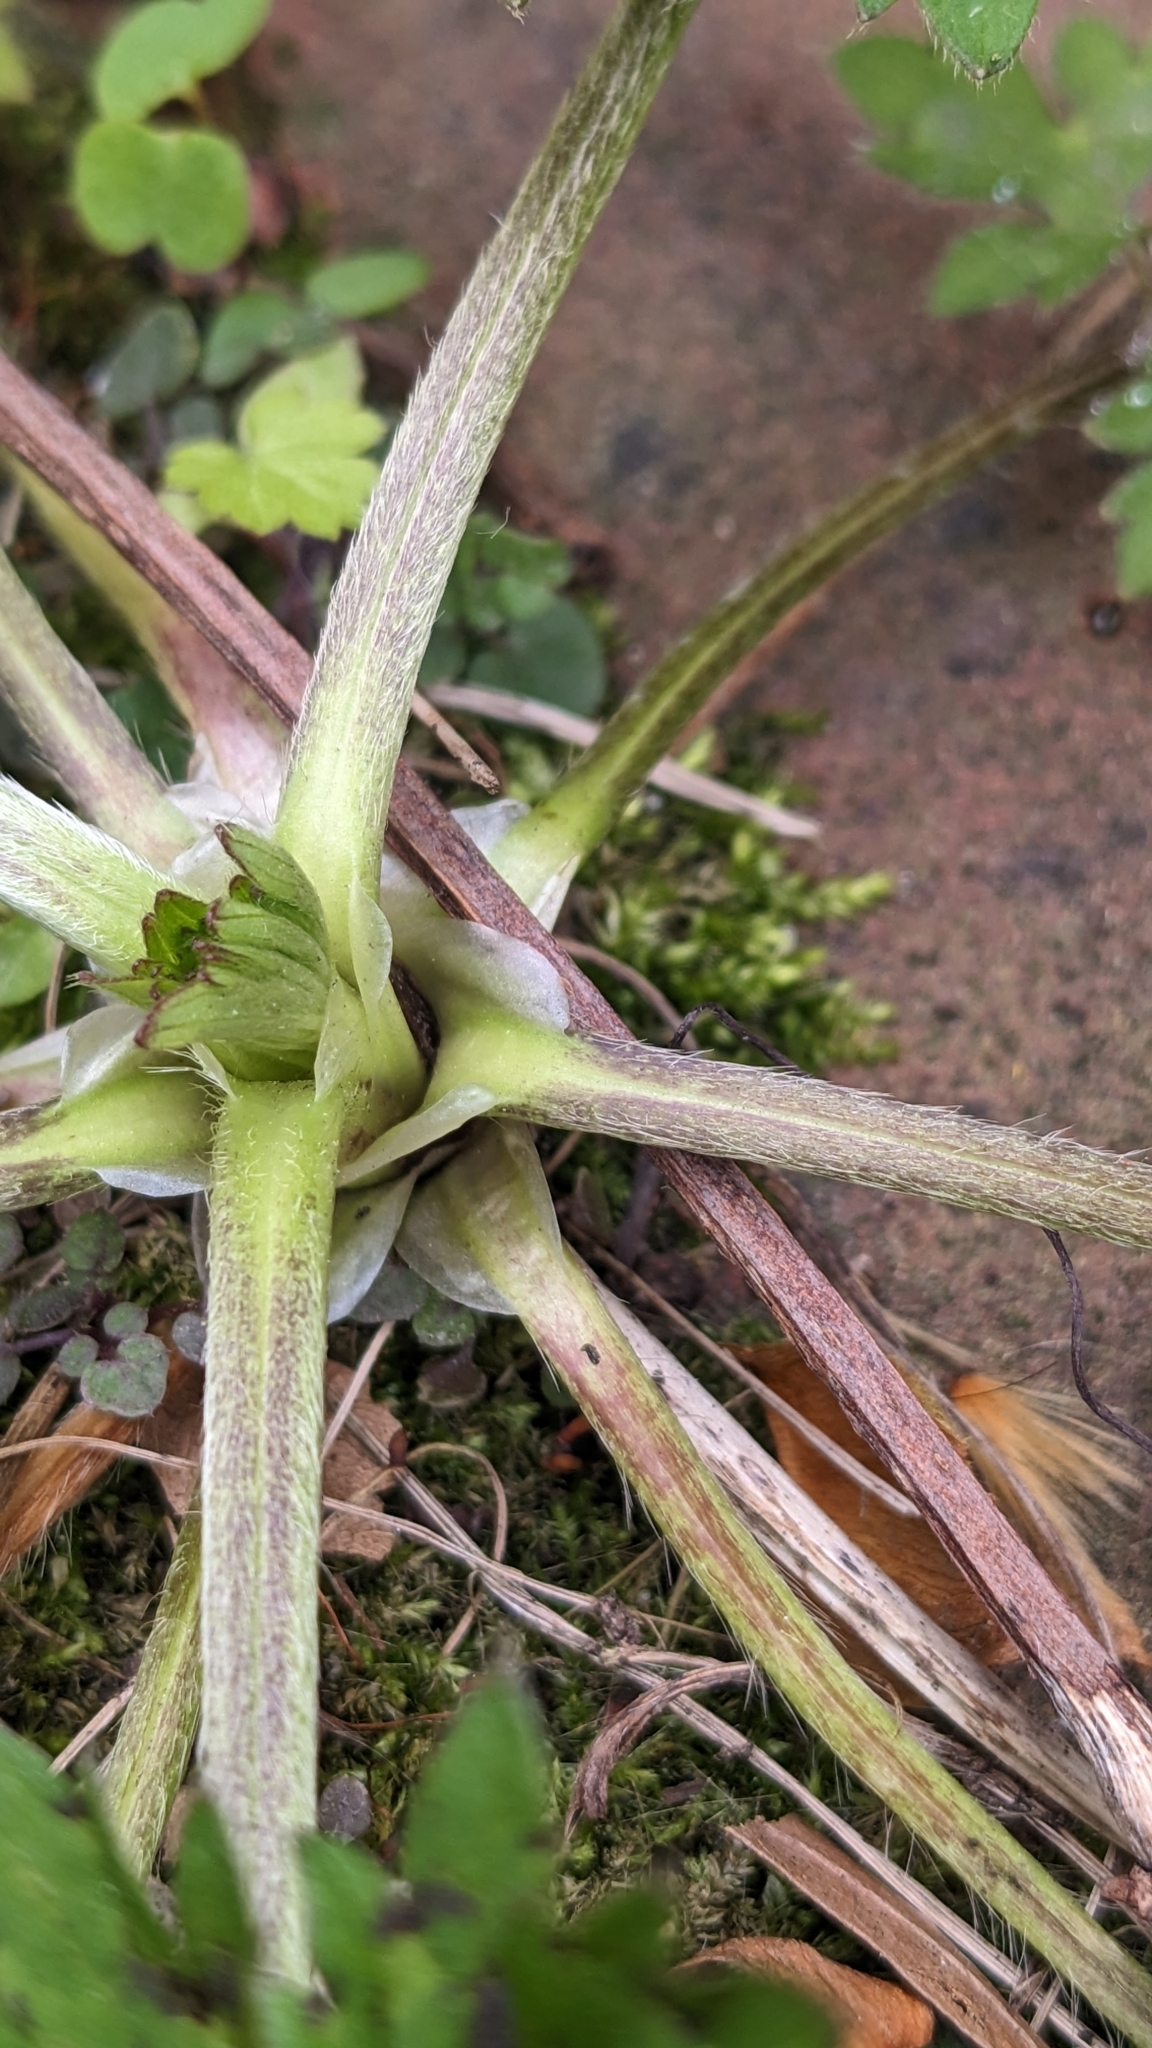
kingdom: Plantae
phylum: Tracheophyta
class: Magnoliopsida
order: Ranunculales
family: Ranunculaceae
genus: Ranunculus
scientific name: Ranunculus repens
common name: Creeping buttercup
